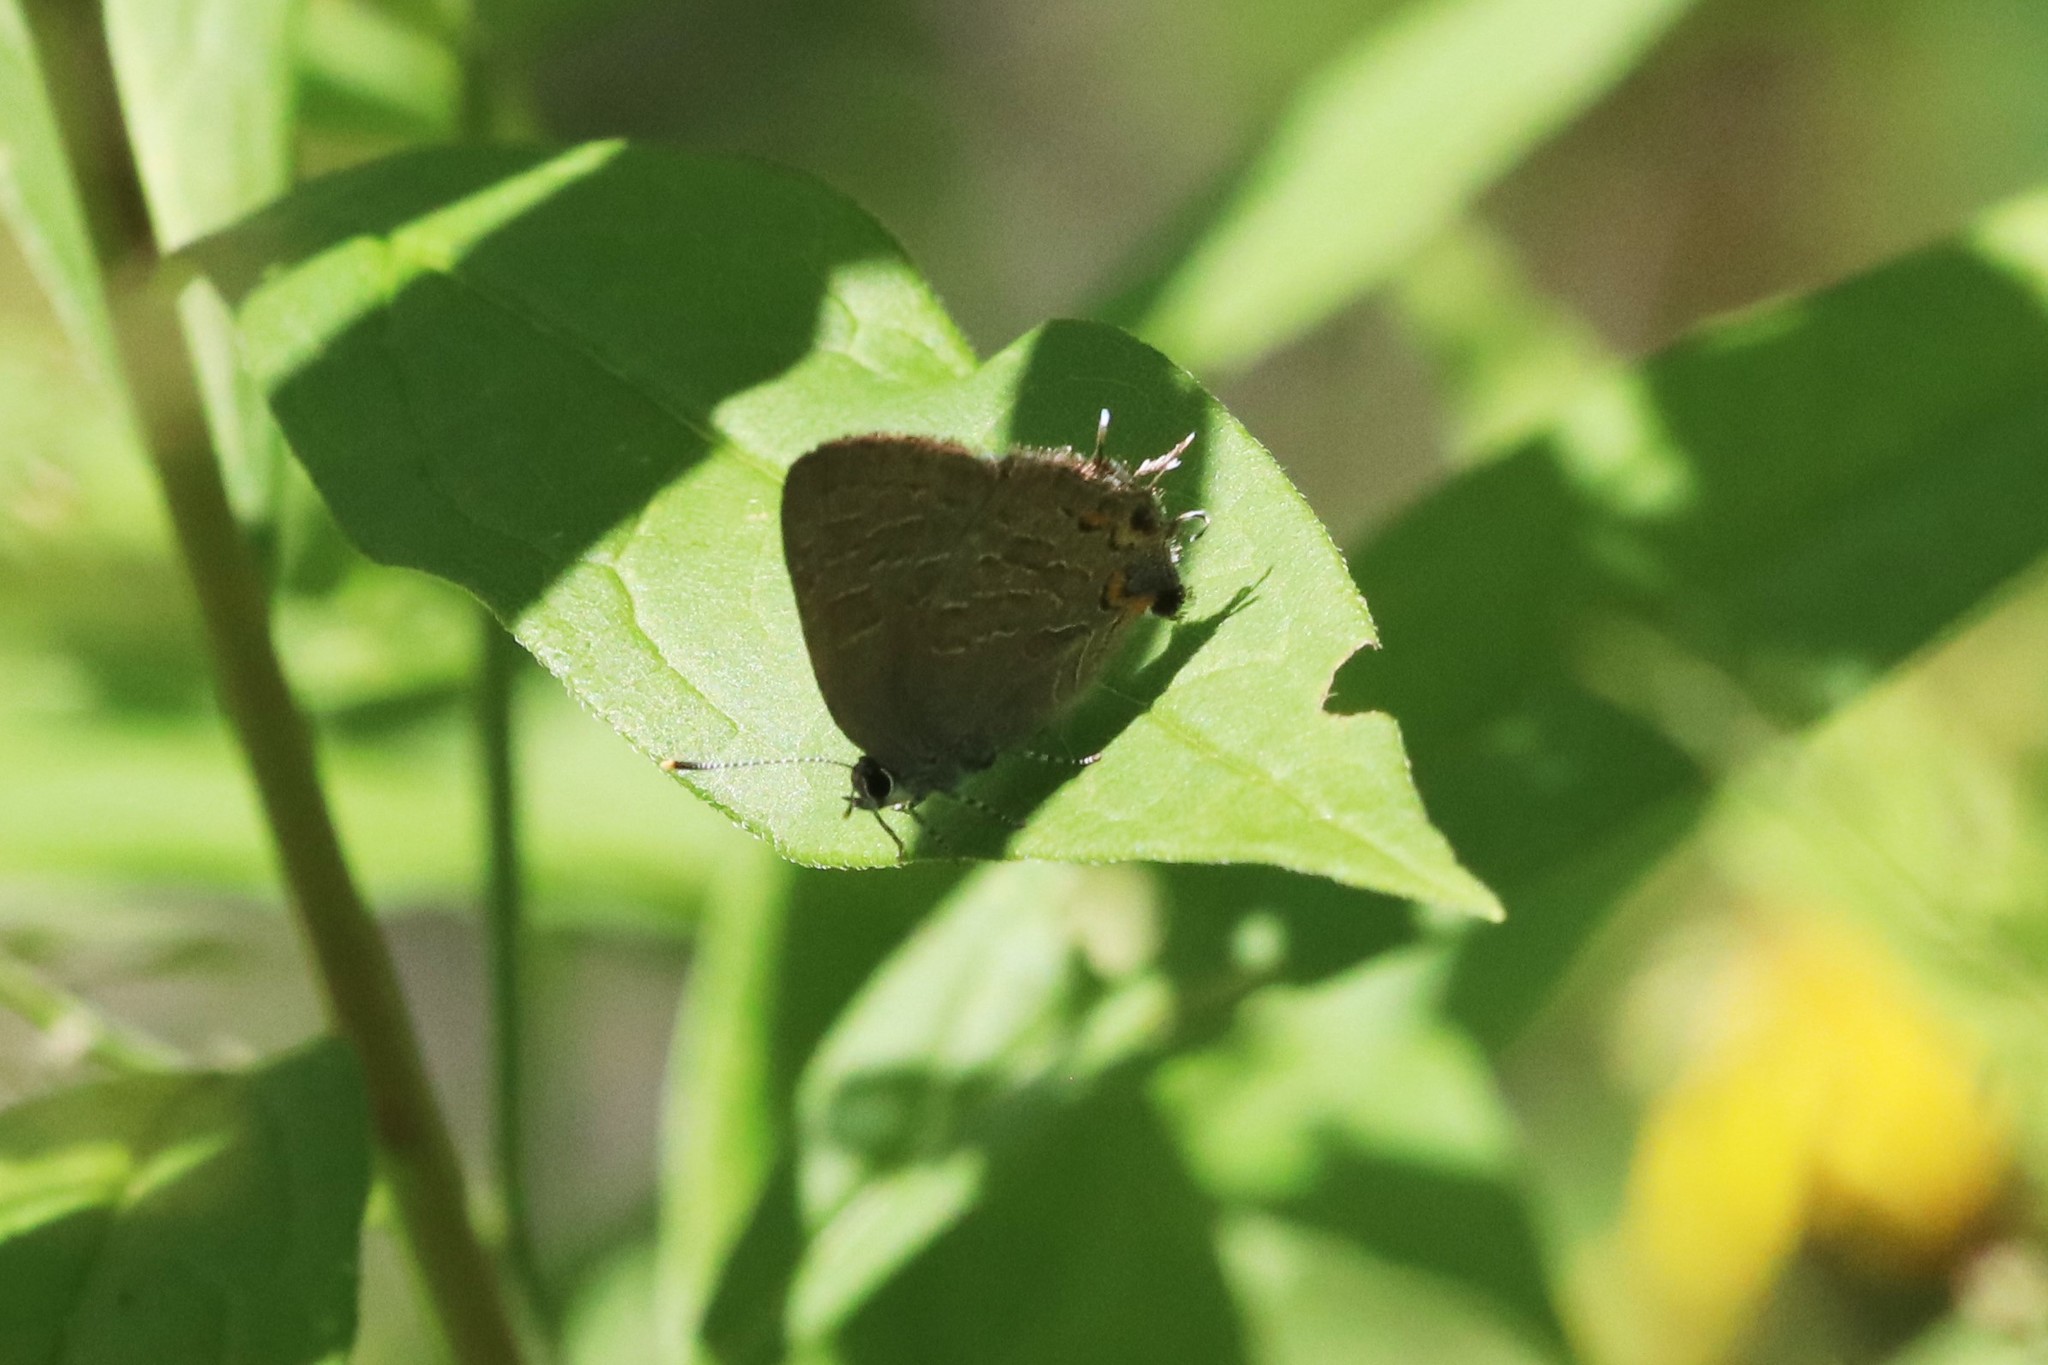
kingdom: Animalia
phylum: Arthropoda
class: Insecta
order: Lepidoptera
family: Lycaenidae
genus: Satyrium
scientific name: Satyrium liparops
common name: Striped hairstreak
